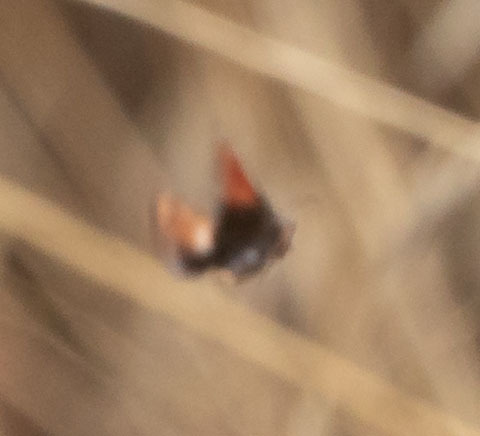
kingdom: Animalia
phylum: Arthropoda
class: Insecta
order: Lepidoptera
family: Noctuidae
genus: Schinia
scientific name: Schinia scarletina
